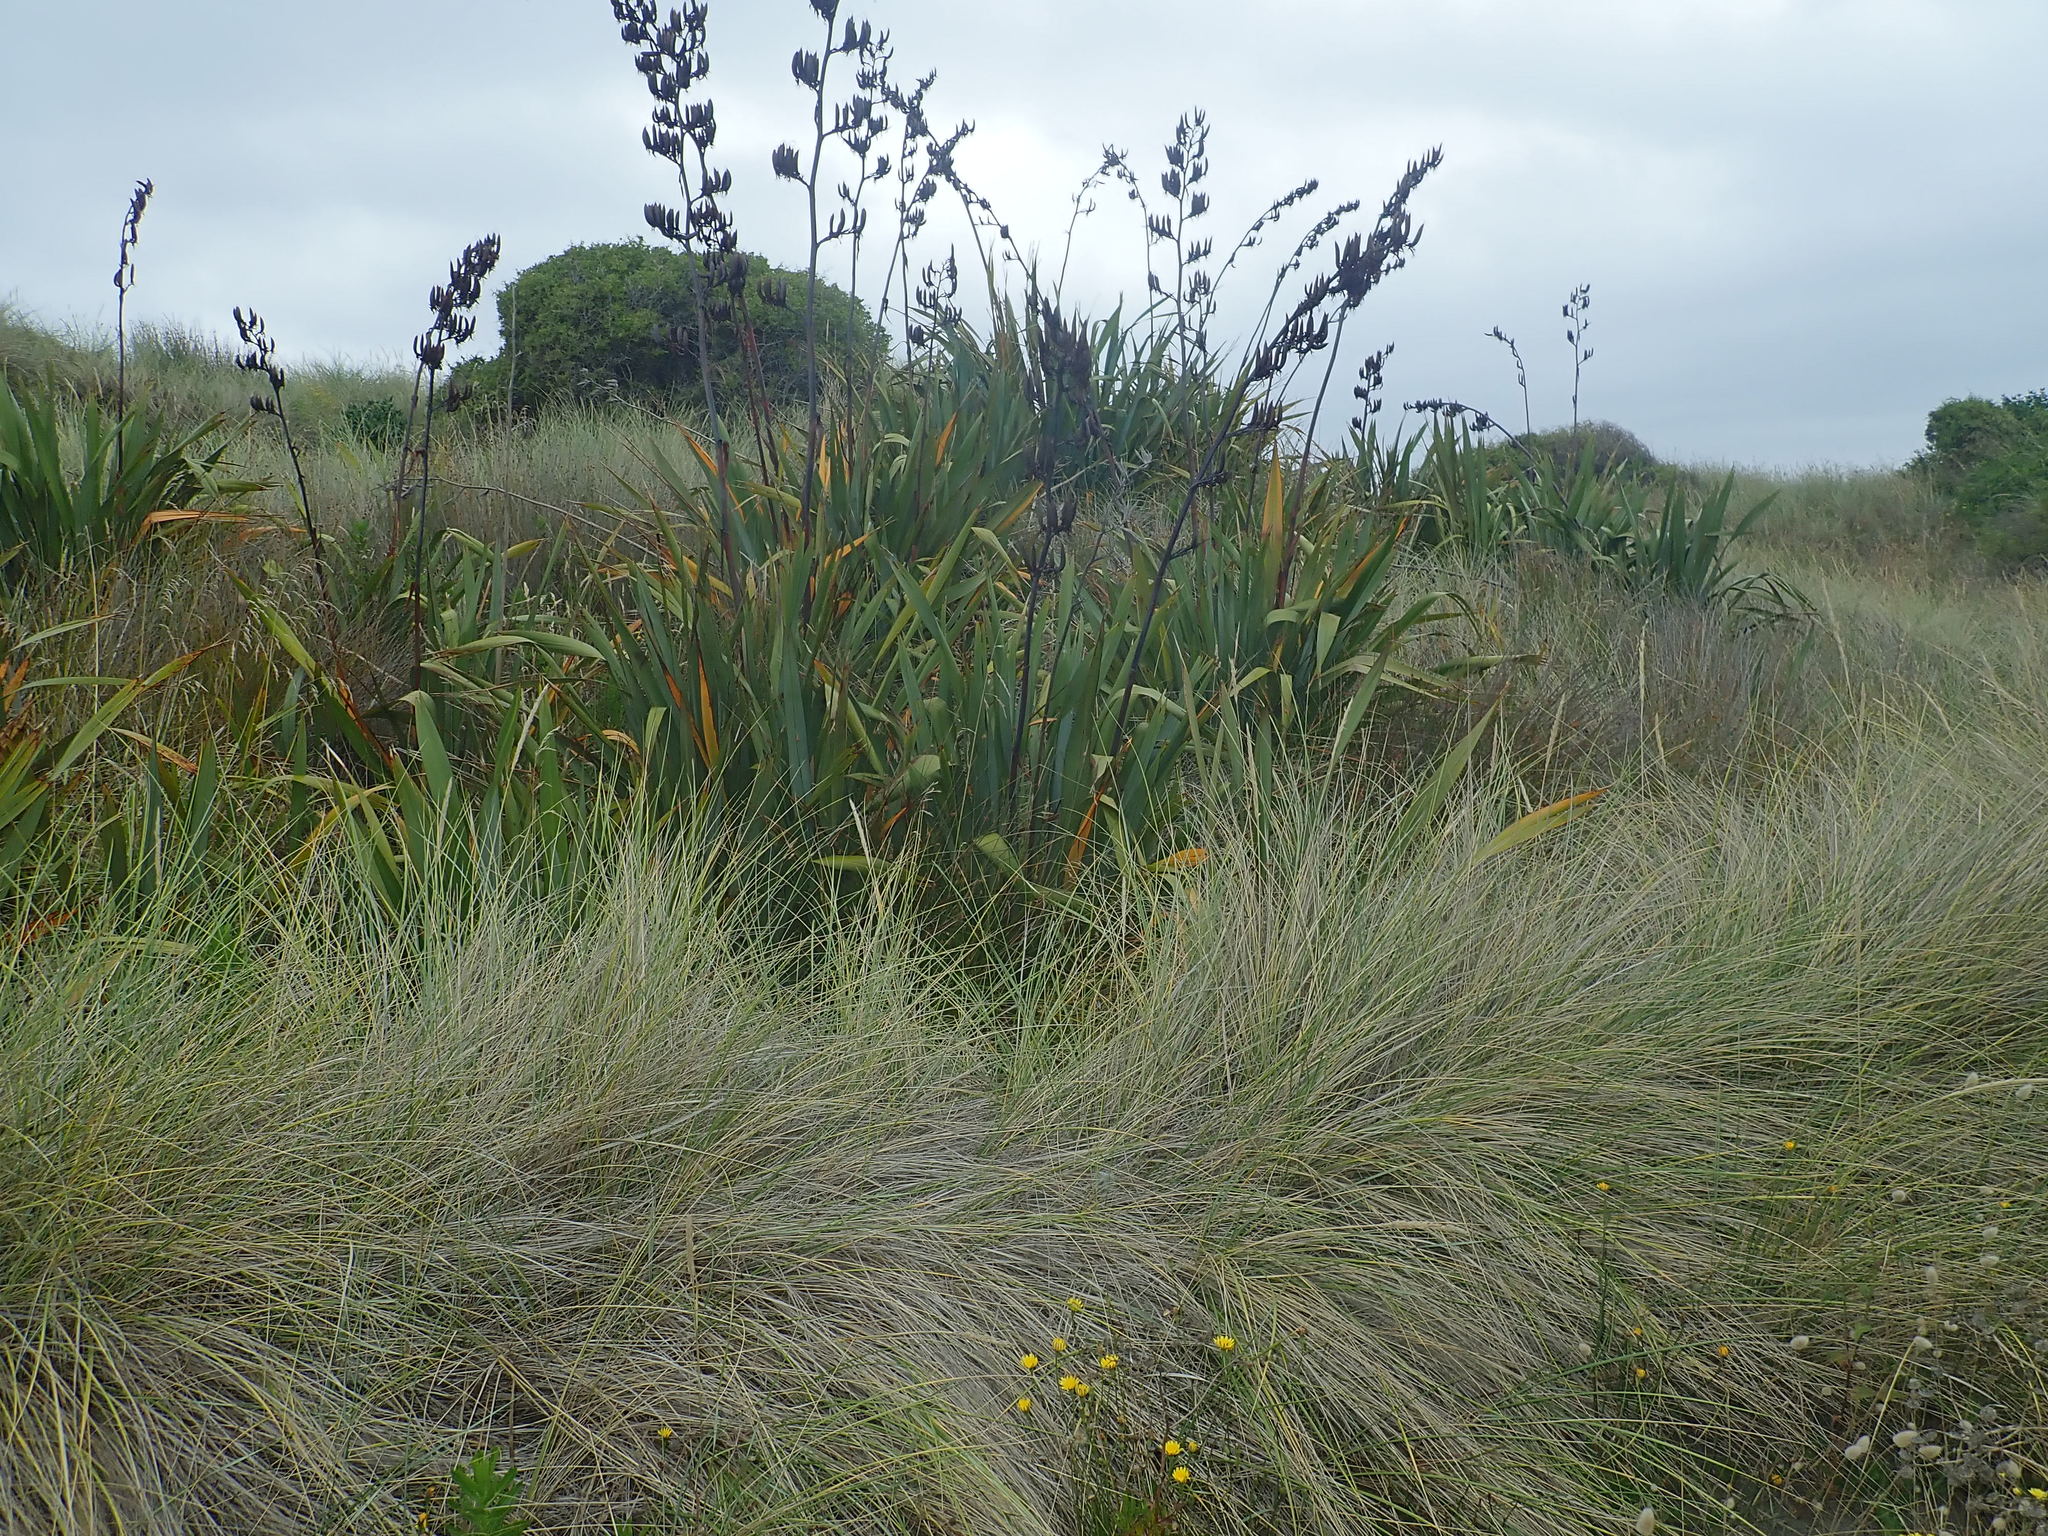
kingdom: Plantae
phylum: Tracheophyta
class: Liliopsida
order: Asparagales
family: Asphodelaceae
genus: Phormium
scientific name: Phormium tenax
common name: New zealand flax
